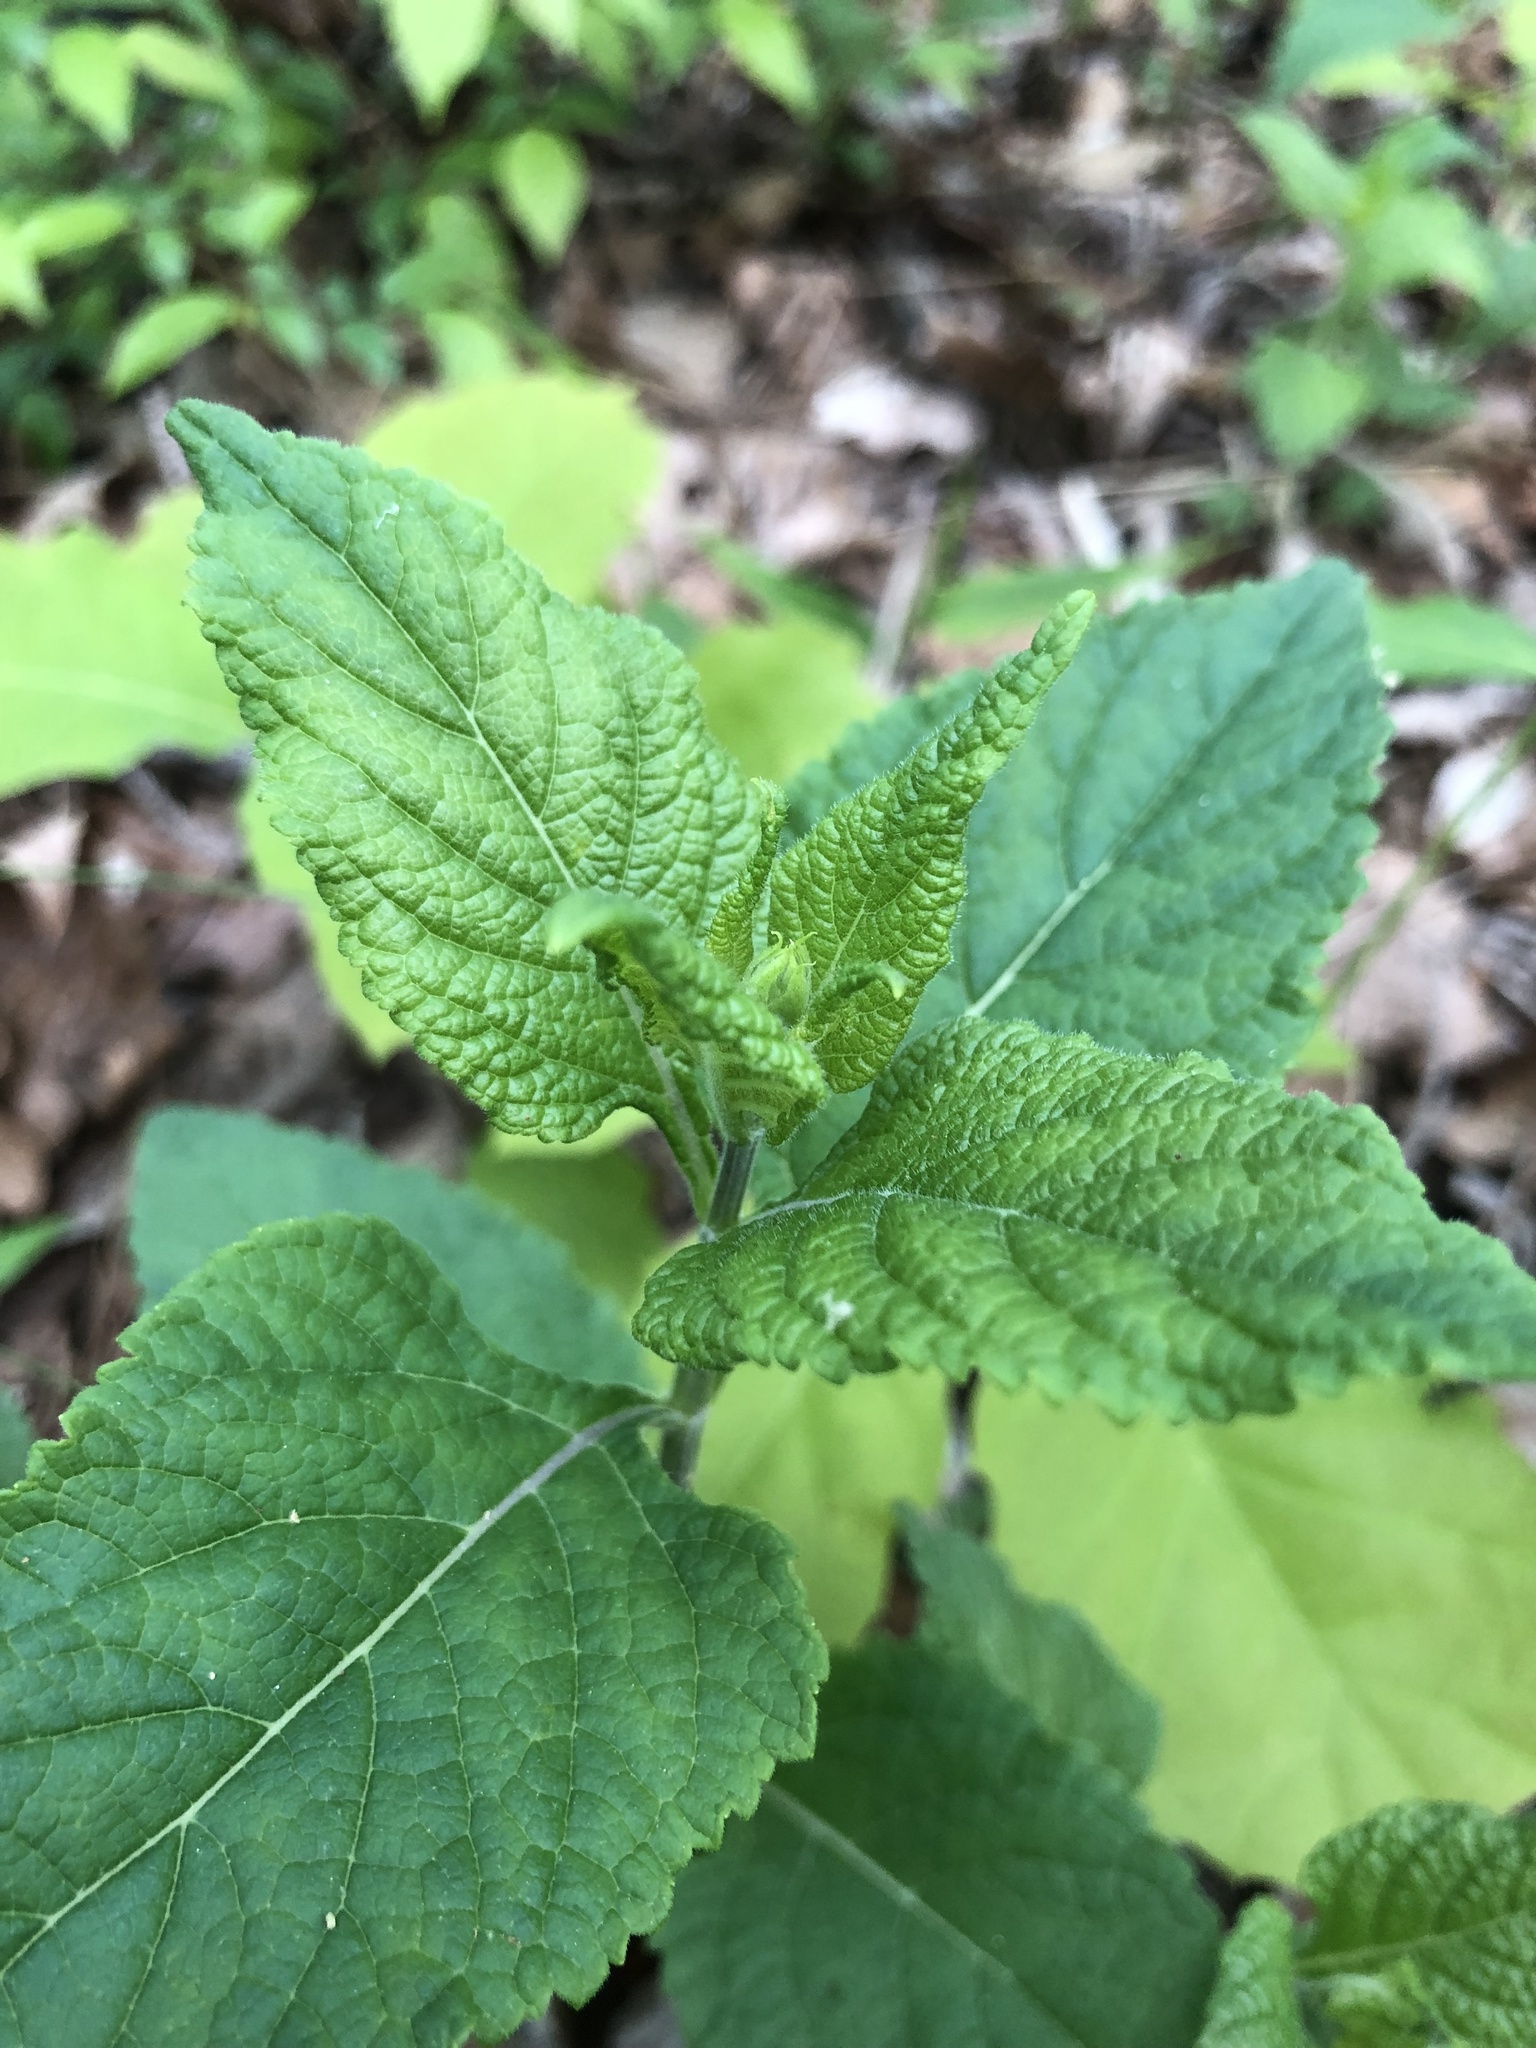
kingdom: Plantae
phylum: Tracheophyta
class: Magnoliopsida
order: Lamiales
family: Lamiaceae
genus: Salvia
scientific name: Salvia urticifolia
